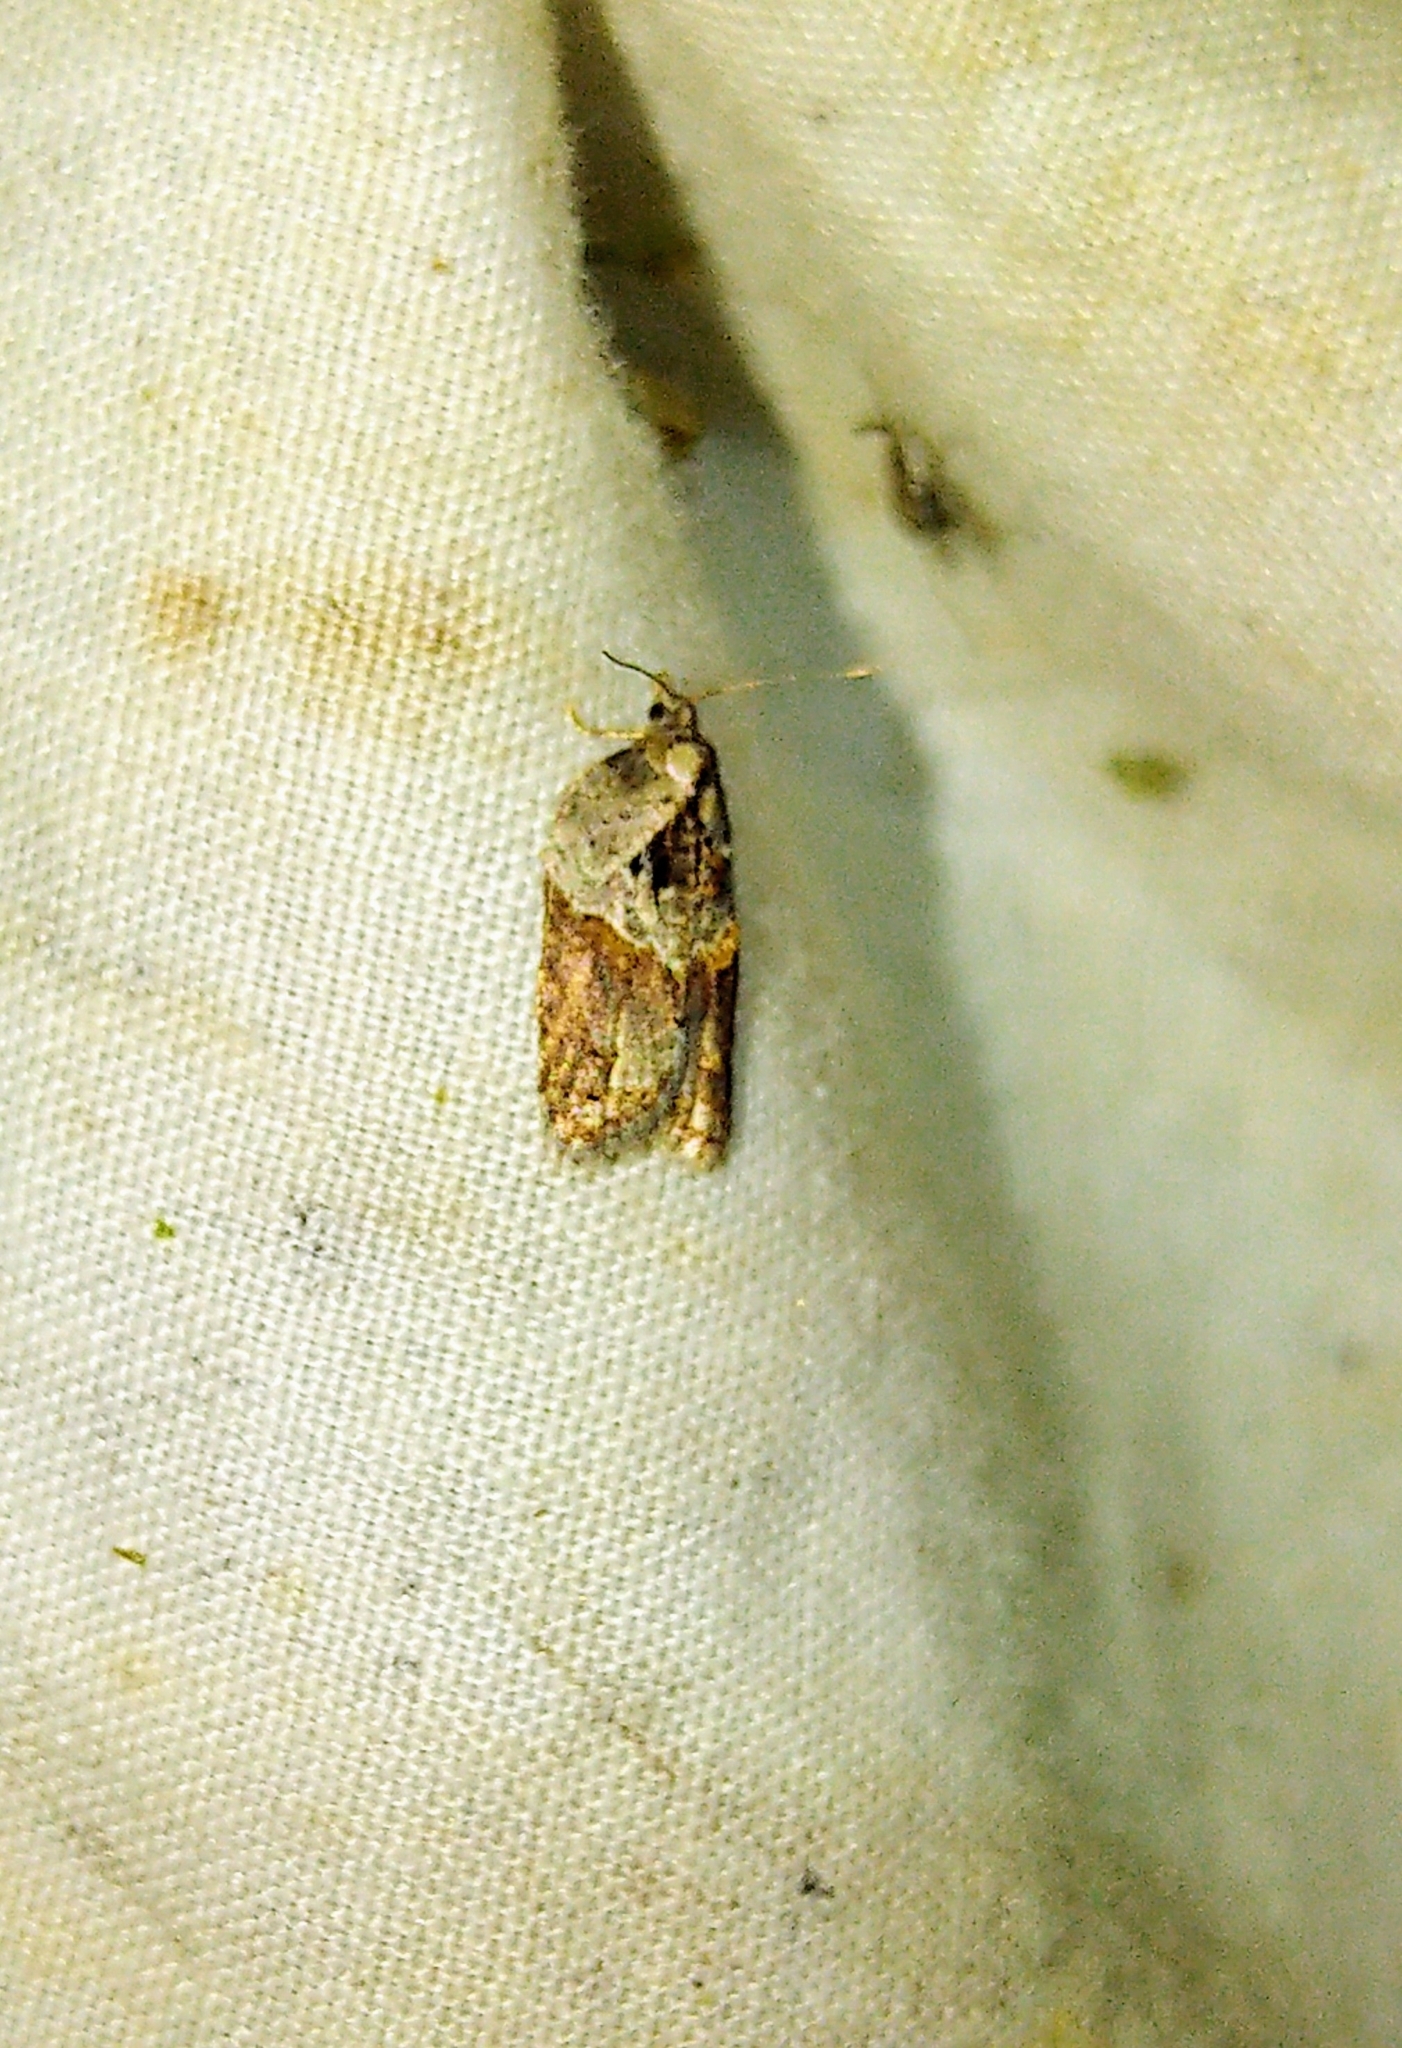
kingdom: Animalia
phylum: Arthropoda
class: Insecta
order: Lepidoptera
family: Tortricidae
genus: Acleris
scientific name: Acleris robinsoniana
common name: Robinson's acleris moth
